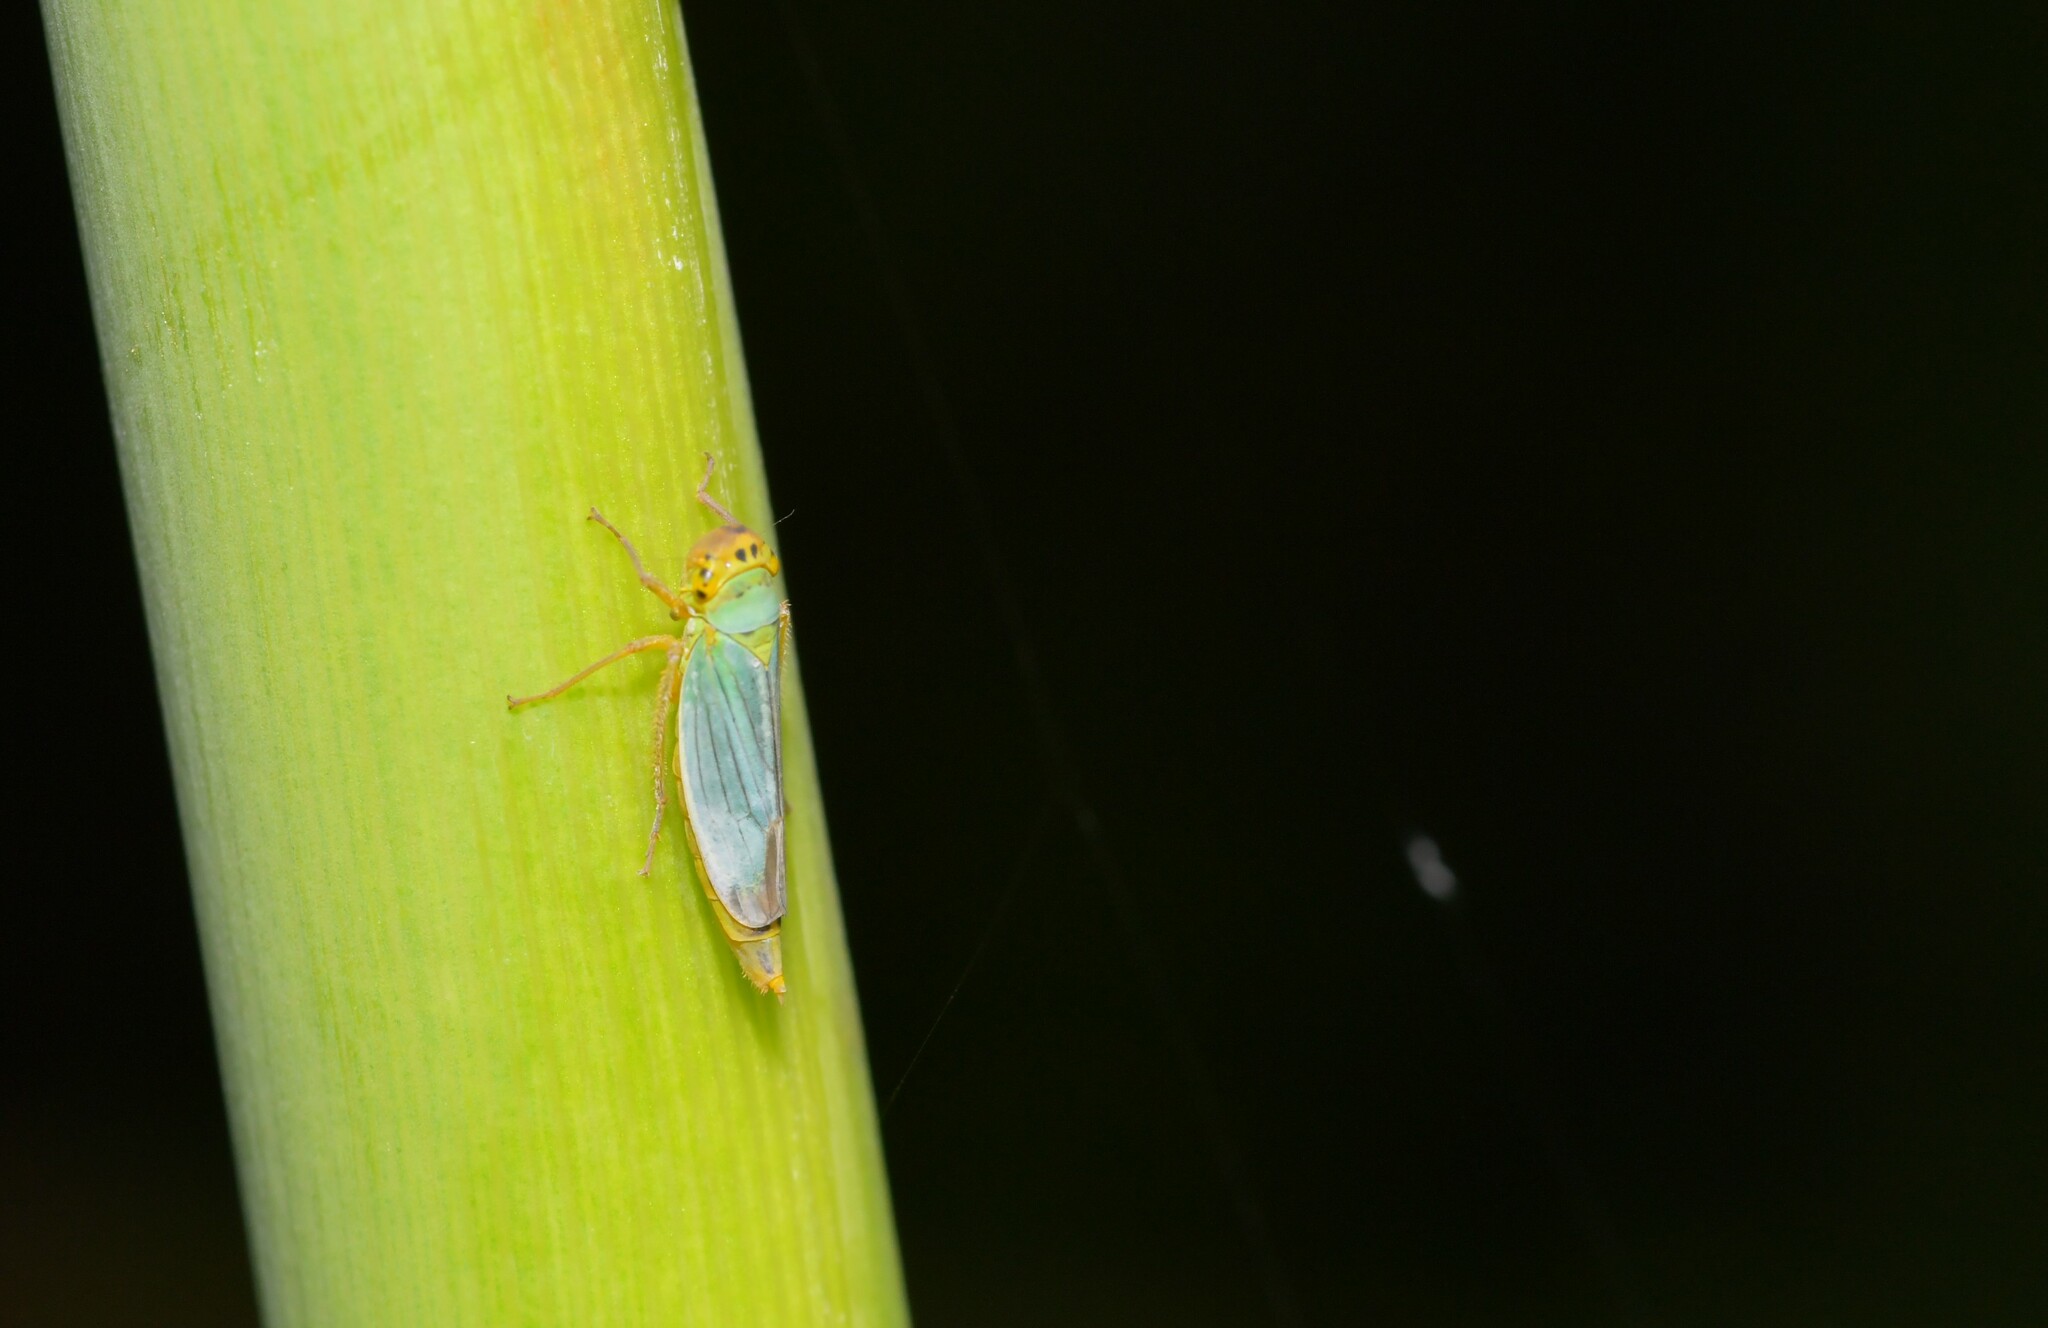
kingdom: Animalia
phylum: Arthropoda
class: Insecta
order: Hemiptera
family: Cicadellidae
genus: Cicadella
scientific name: Cicadella viridis
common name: Leafhopper
